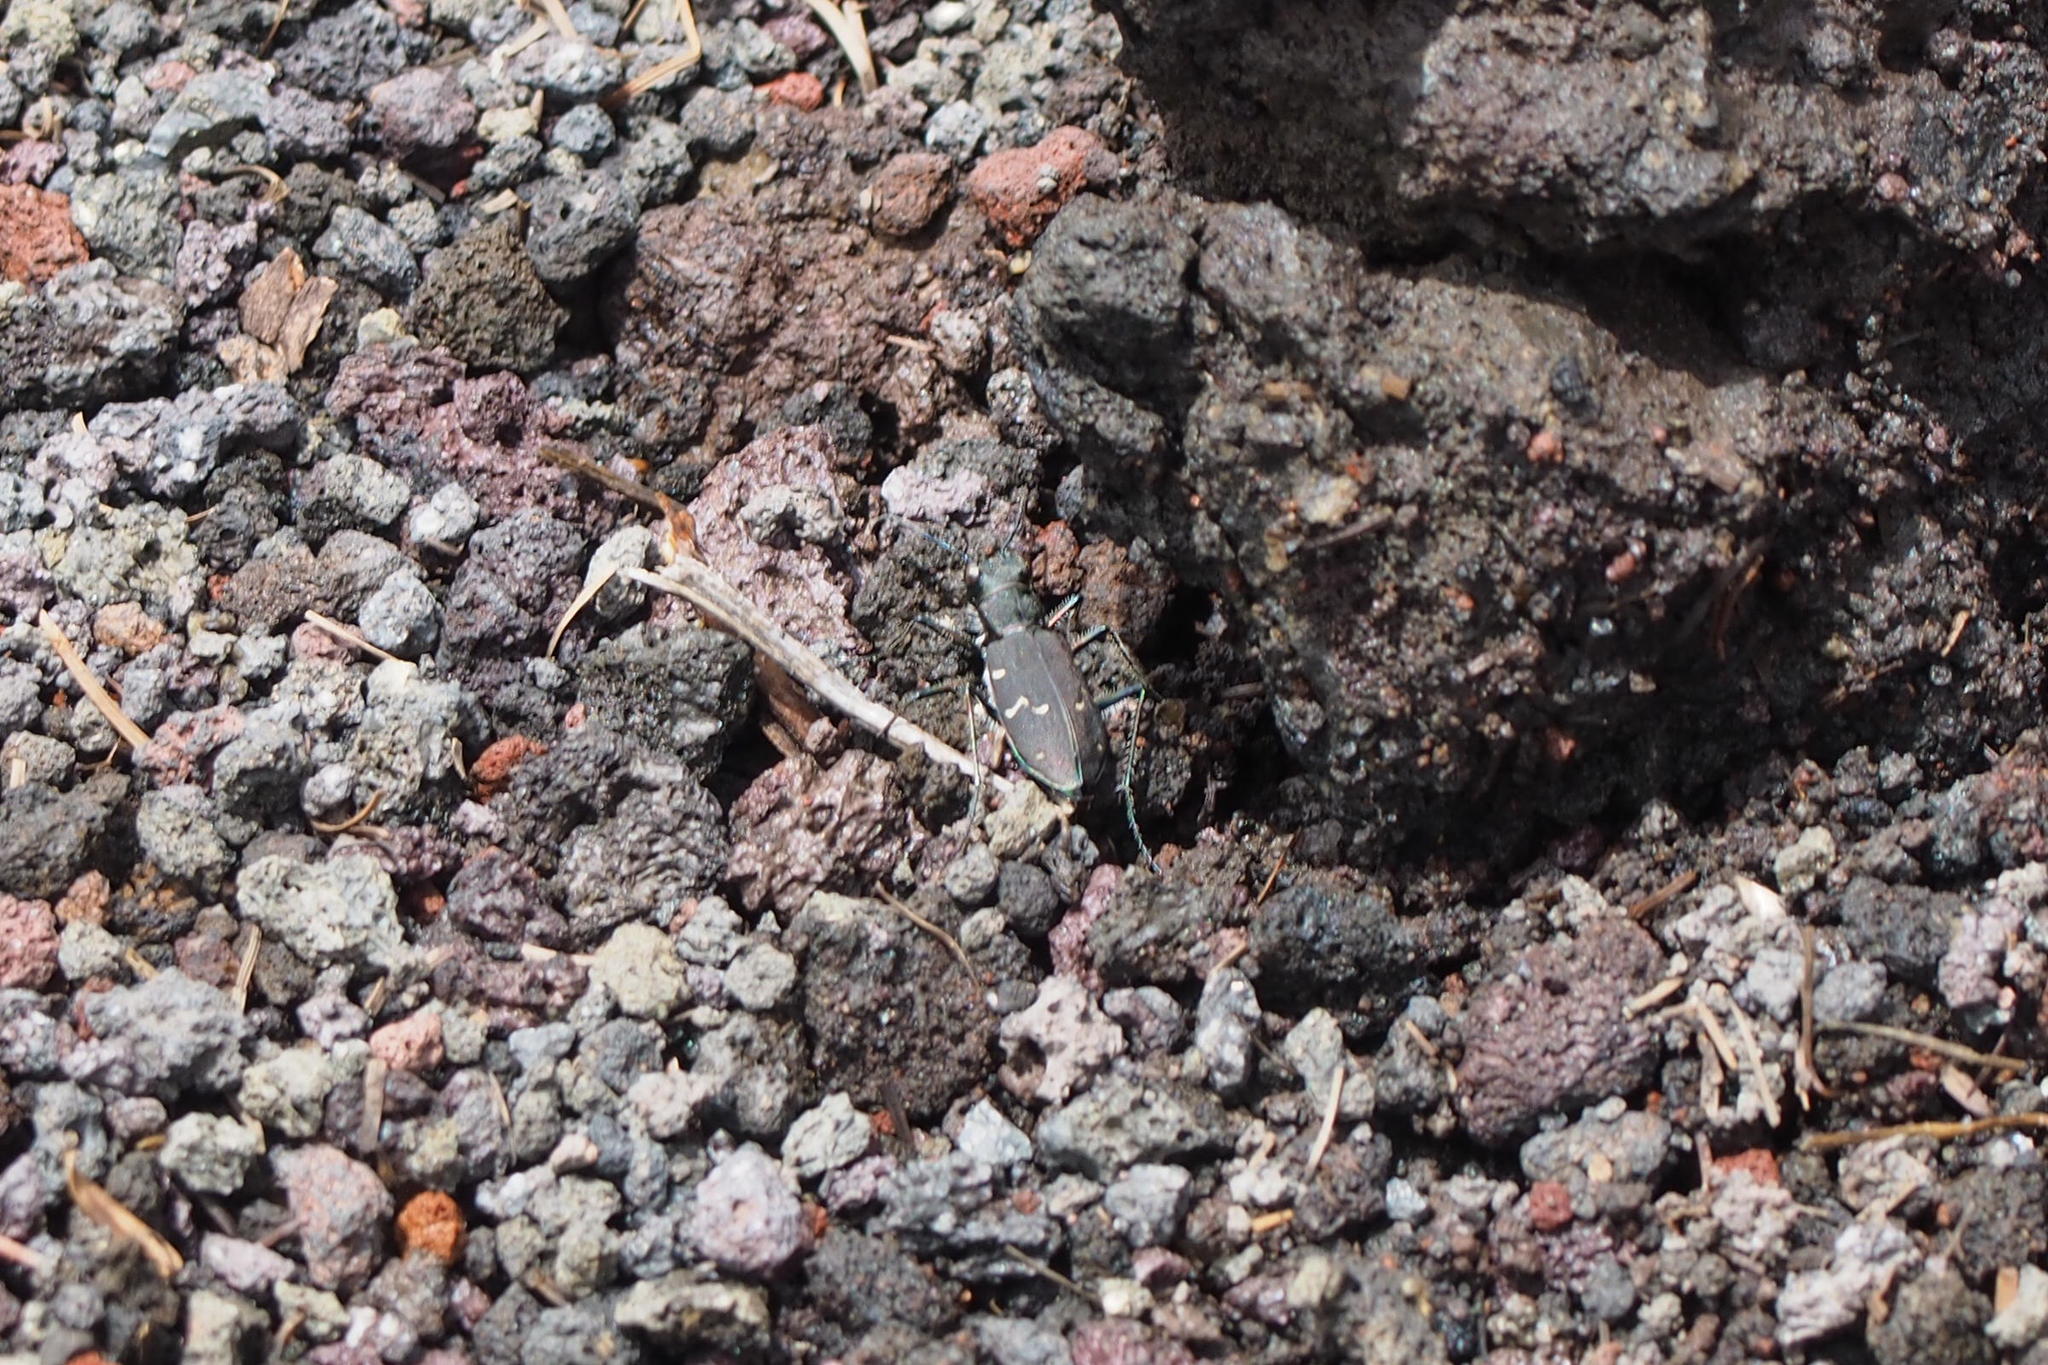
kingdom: Animalia
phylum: Arthropoda
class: Insecta
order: Coleoptera
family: Carabidae
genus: Cicindela
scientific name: Cicindela sachalinensis
